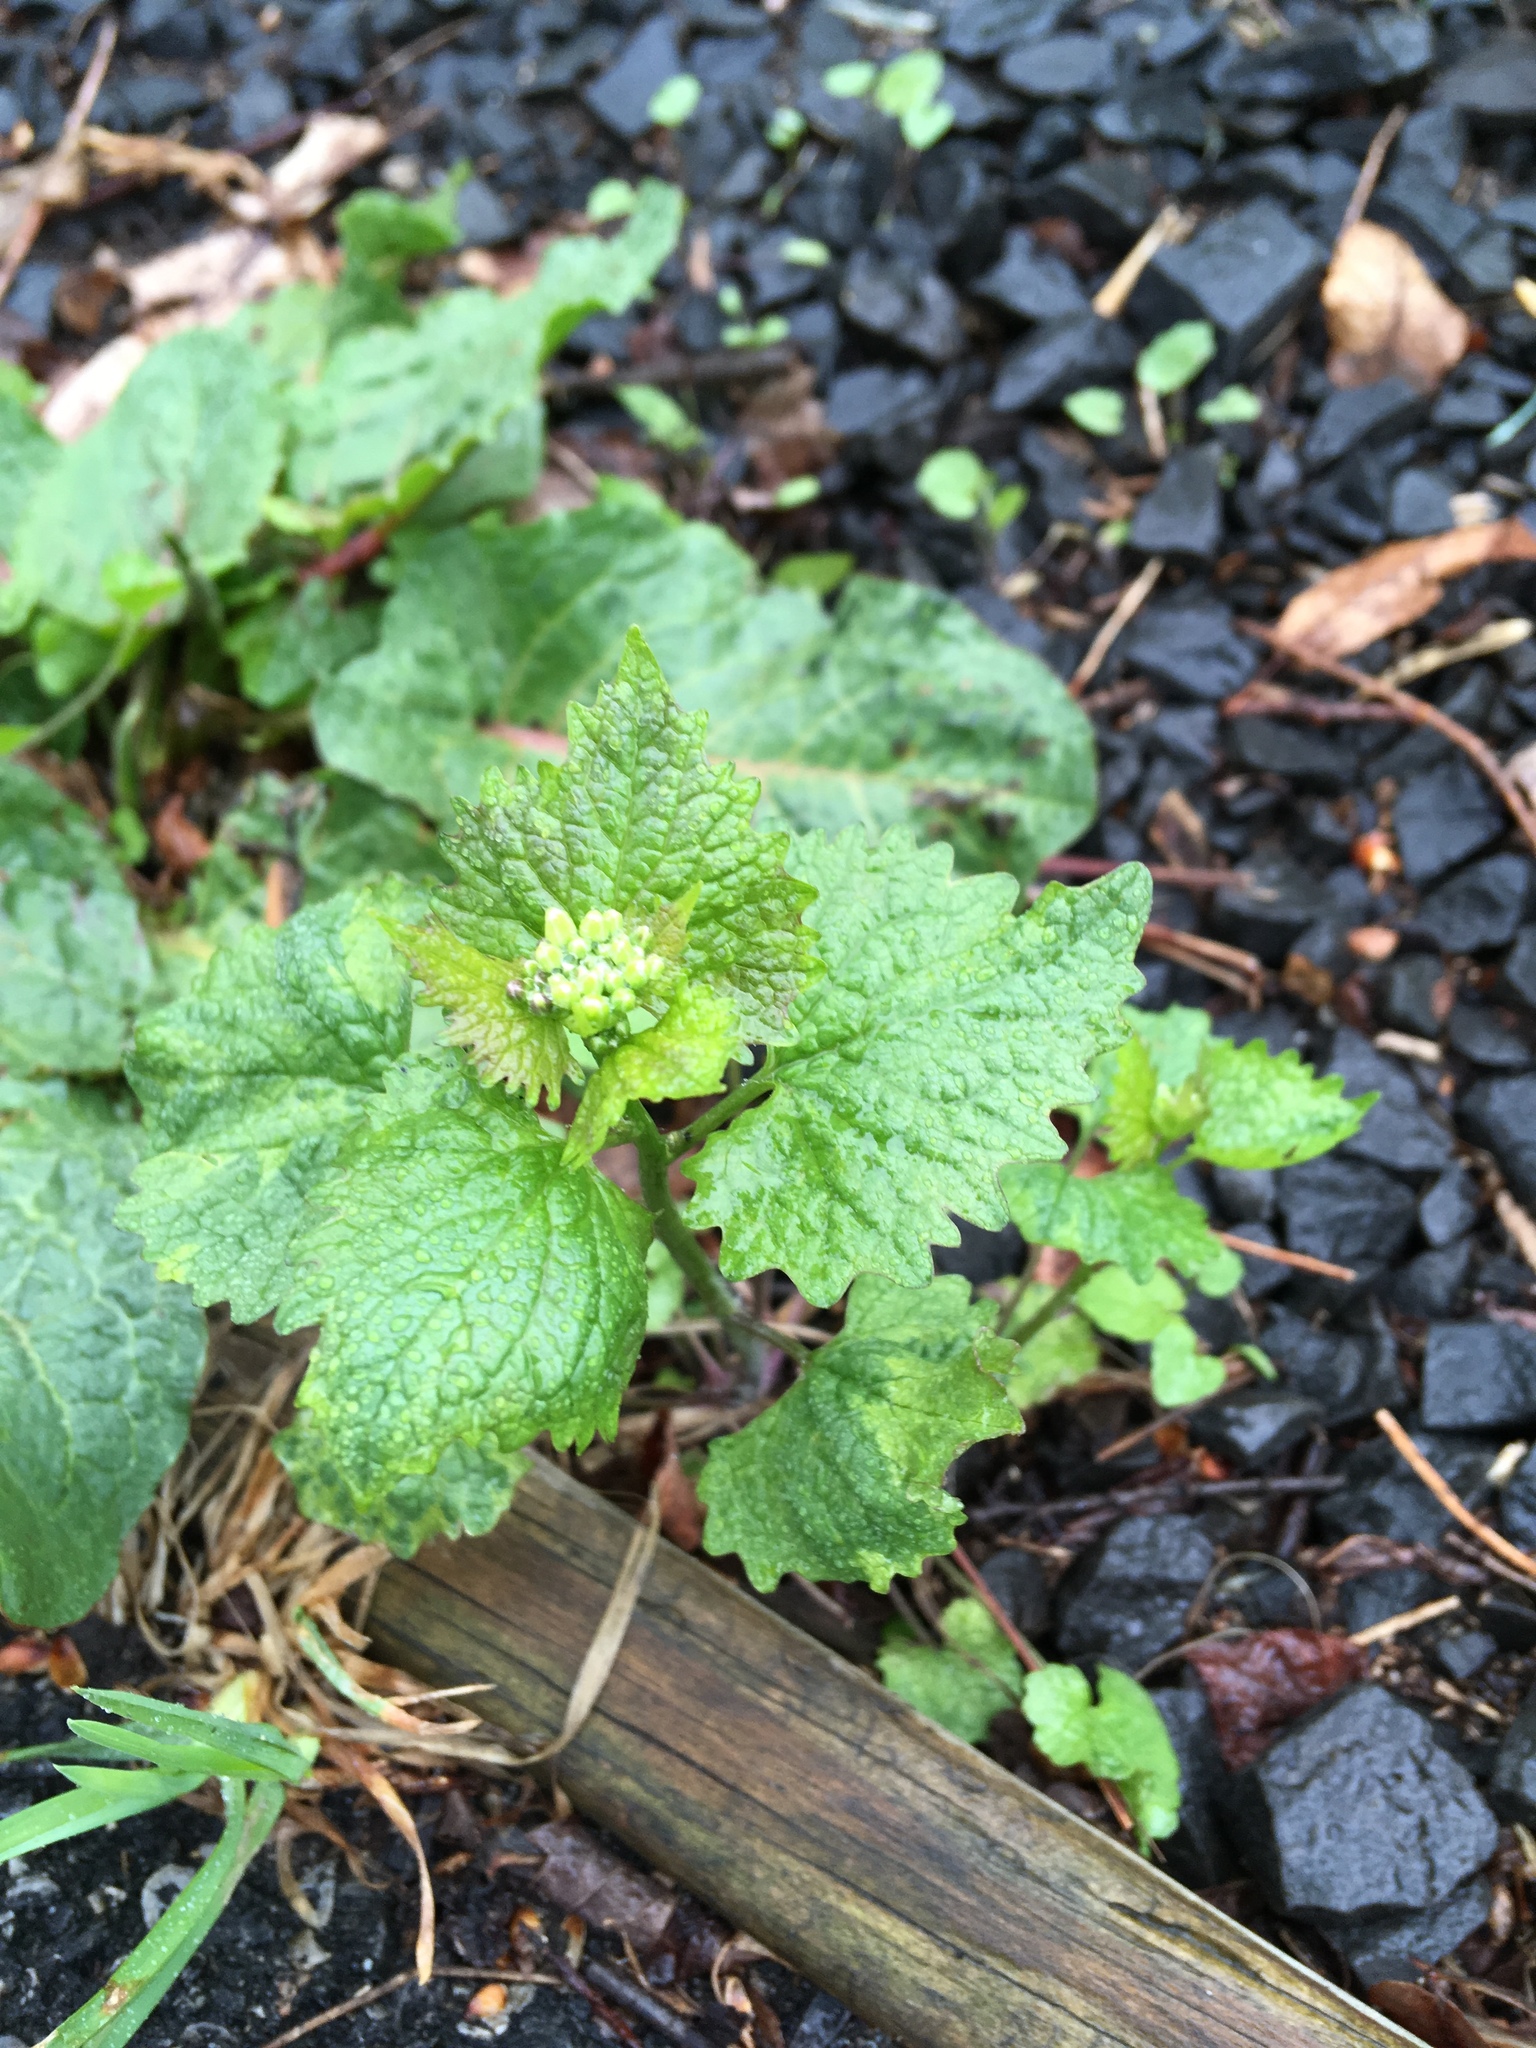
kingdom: Plantae
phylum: Tracheophyta
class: Magnoliopsida
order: Brassicales
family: Brassicaceae
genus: Alliaria
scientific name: Alliaria petiolata
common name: Garlic mustard
